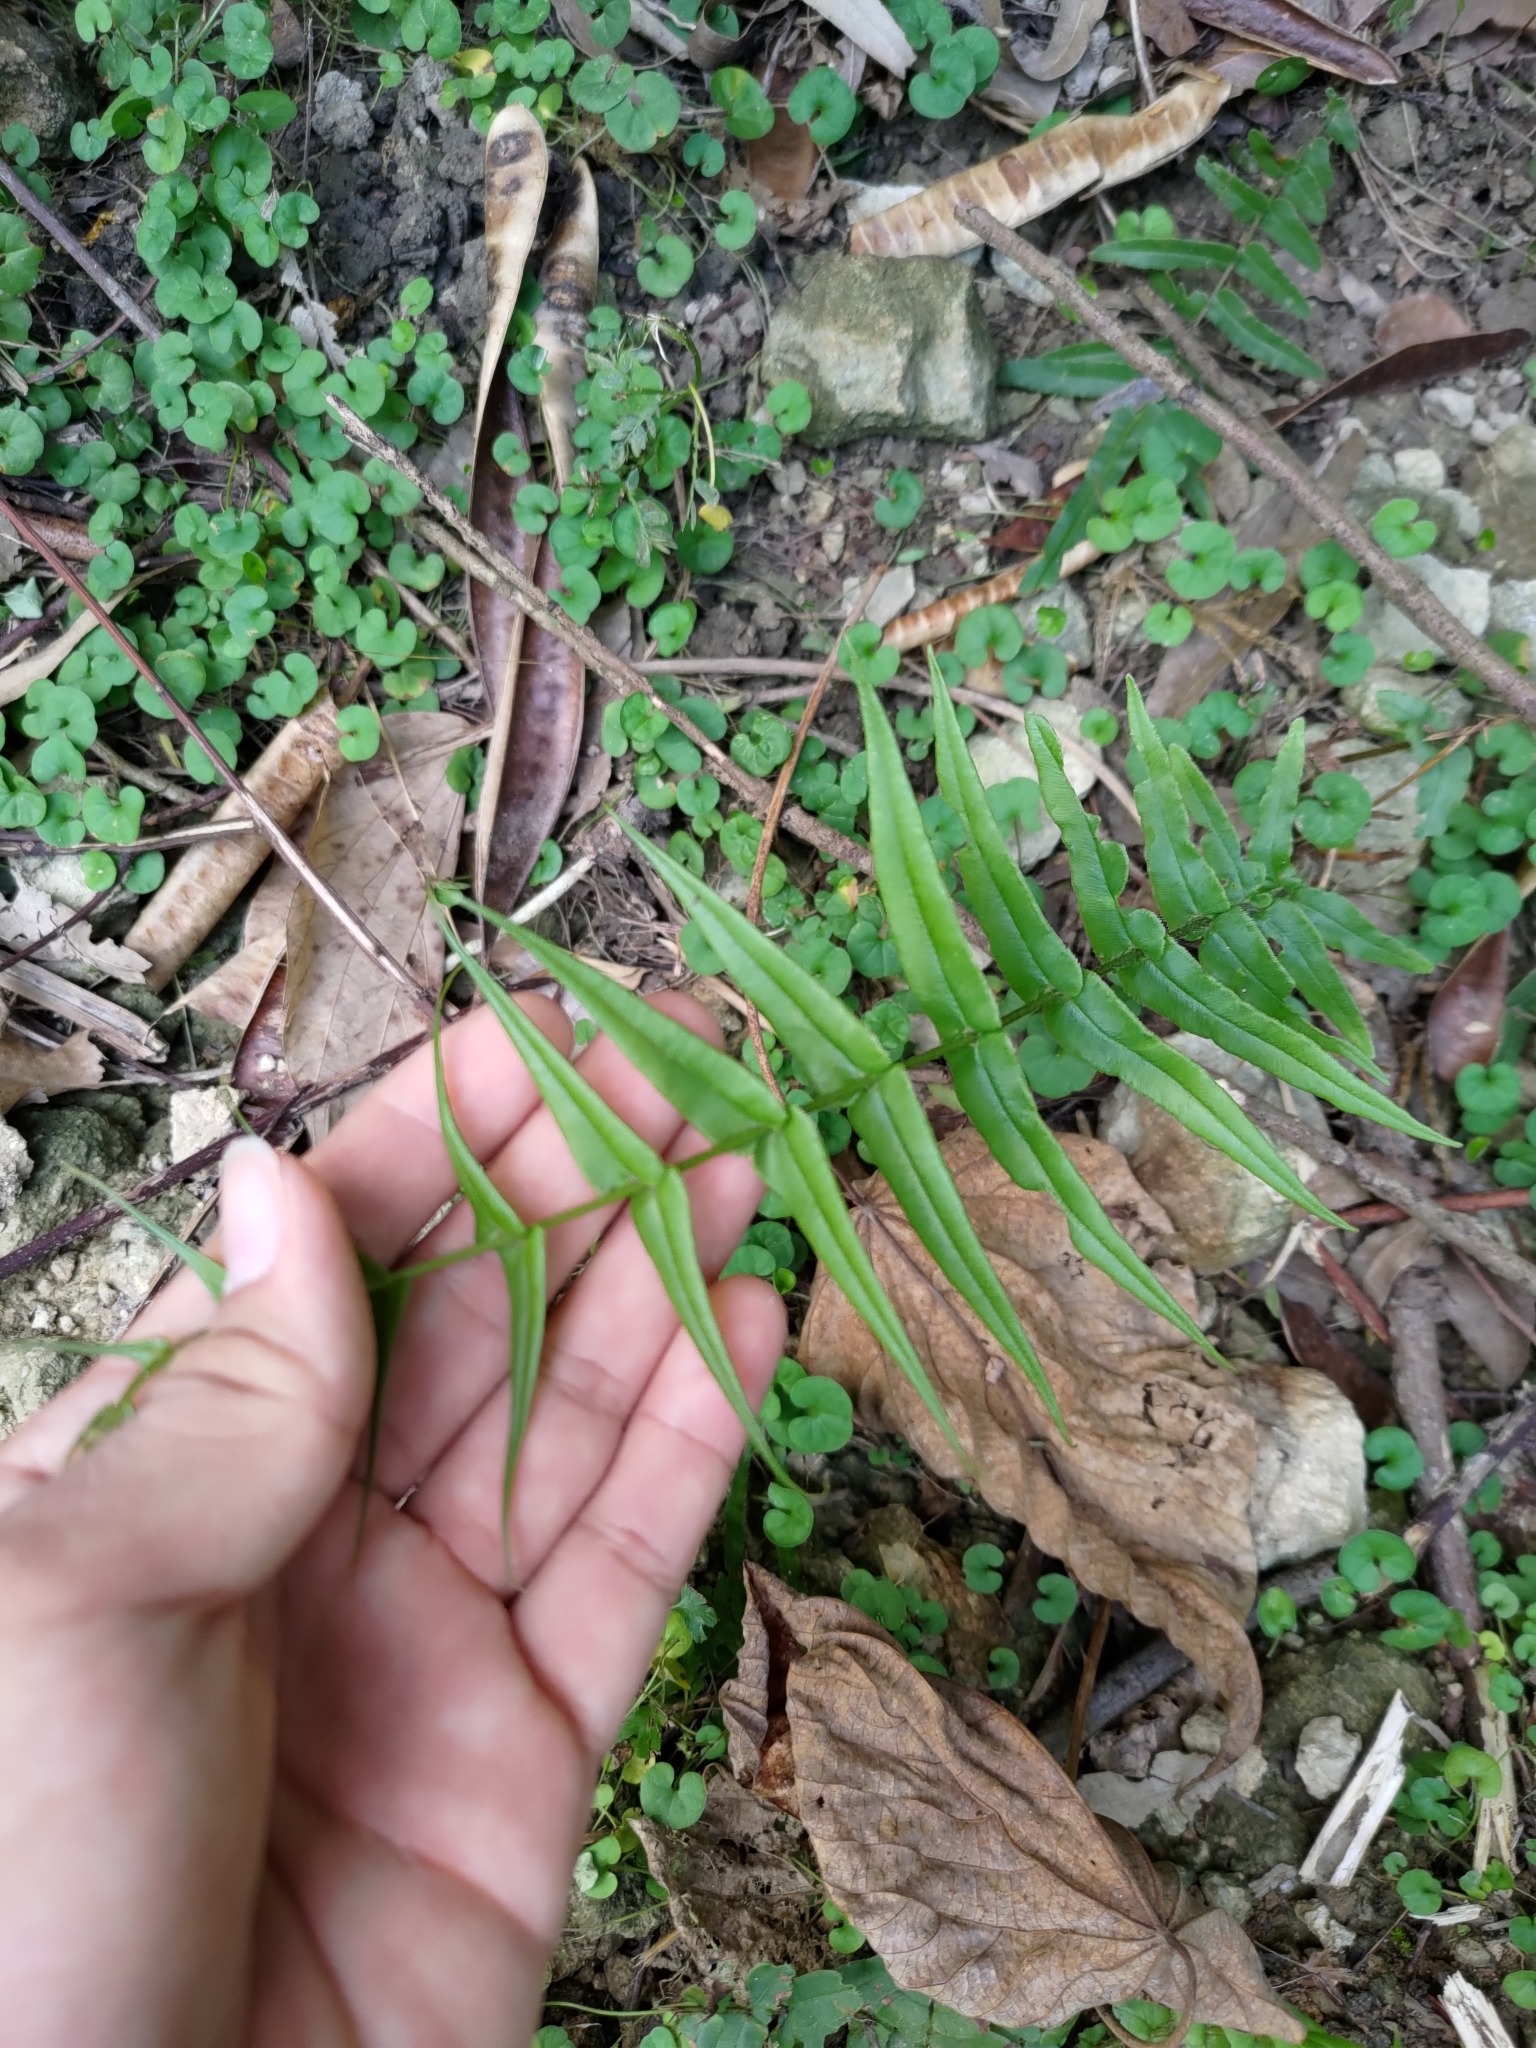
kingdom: Plantae
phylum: Tracheophyta
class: Polypodiopsida
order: Polypodiales
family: Pteridaceae
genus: Pteris
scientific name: Pteris vittata
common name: Ladder brake
